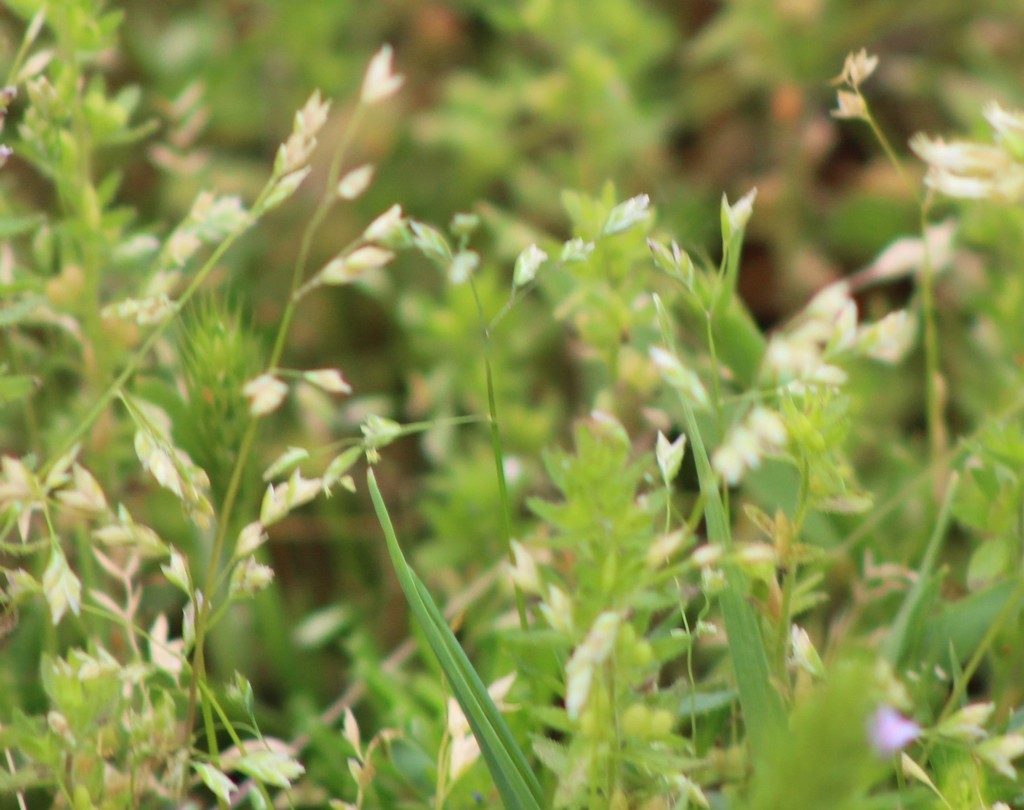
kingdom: Plantae
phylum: Tracheophyta
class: Liliopsida
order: Poales
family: Poaceae
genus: Poa
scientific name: Poa annua
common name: Annual bluegrass
